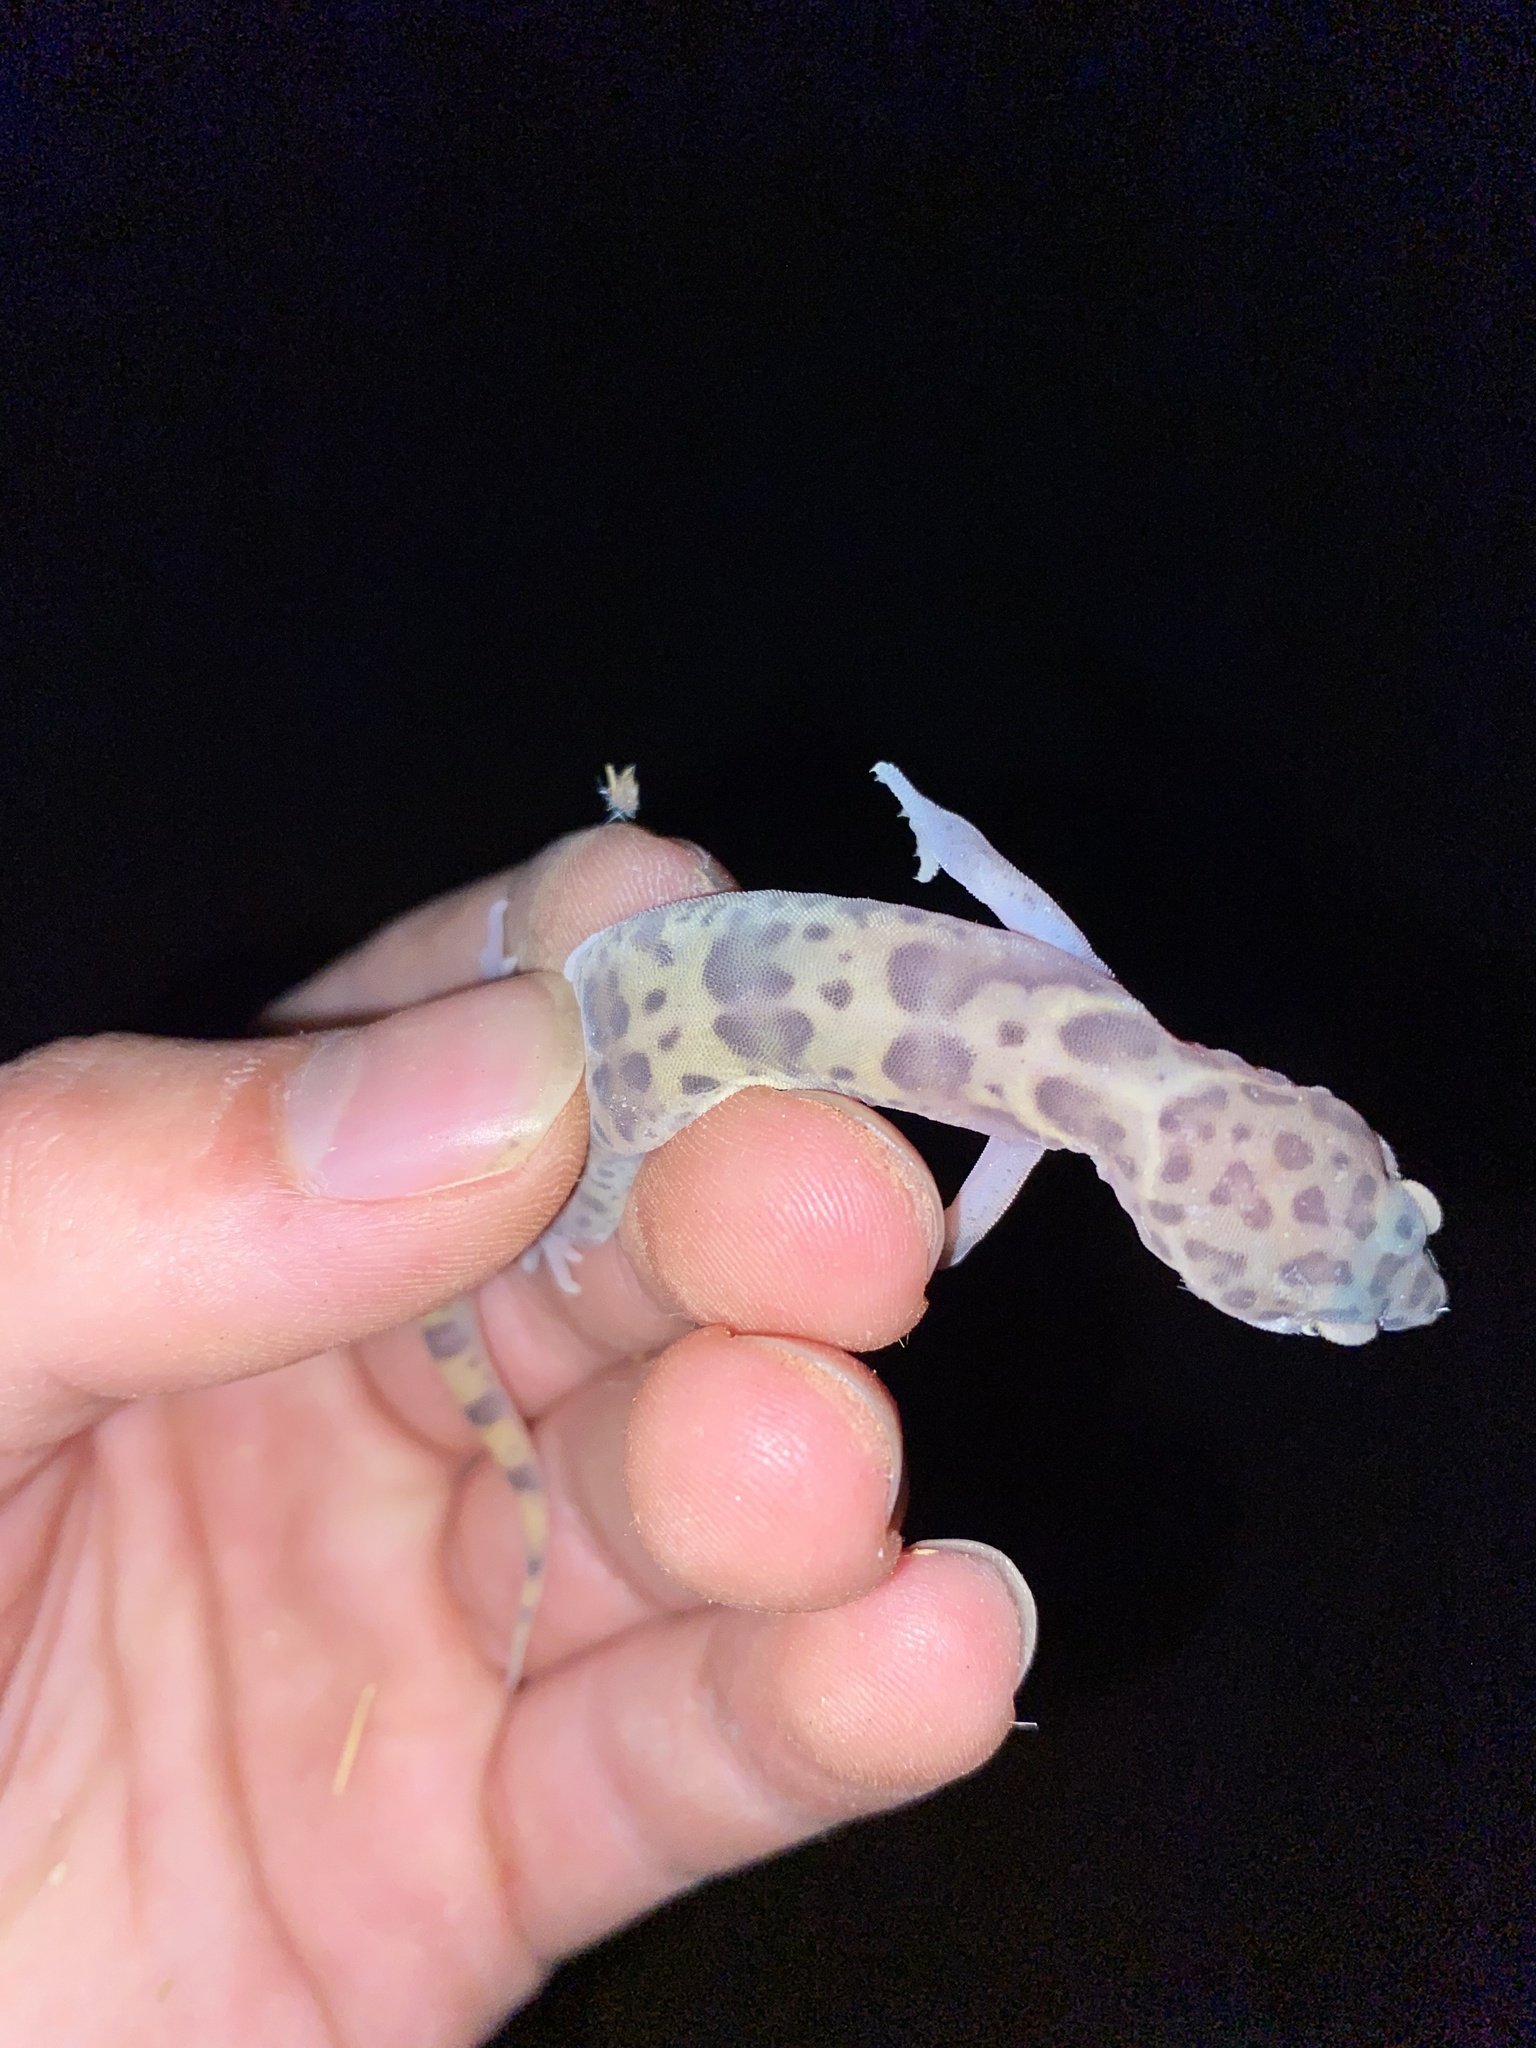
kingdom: Animalia
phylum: Chordata
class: Squamata
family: Eublepharidae
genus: Coleonyx
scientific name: Coleonyx variegatus
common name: Western banded gecko
